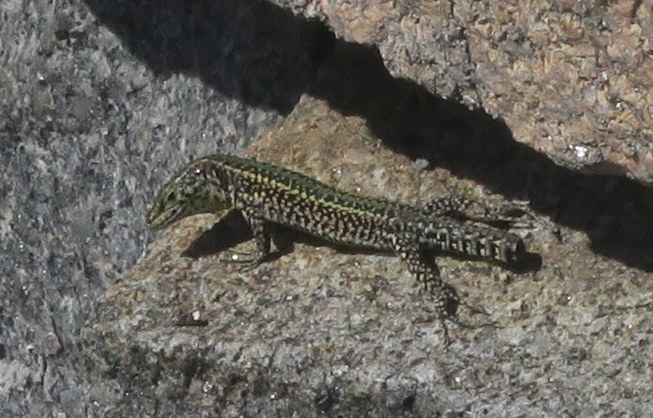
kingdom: Animalia
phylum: Chordata
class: Squamata
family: Lacertidae
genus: Podarcis
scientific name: Podarcis bocagei
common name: Bocage's wall lizard
